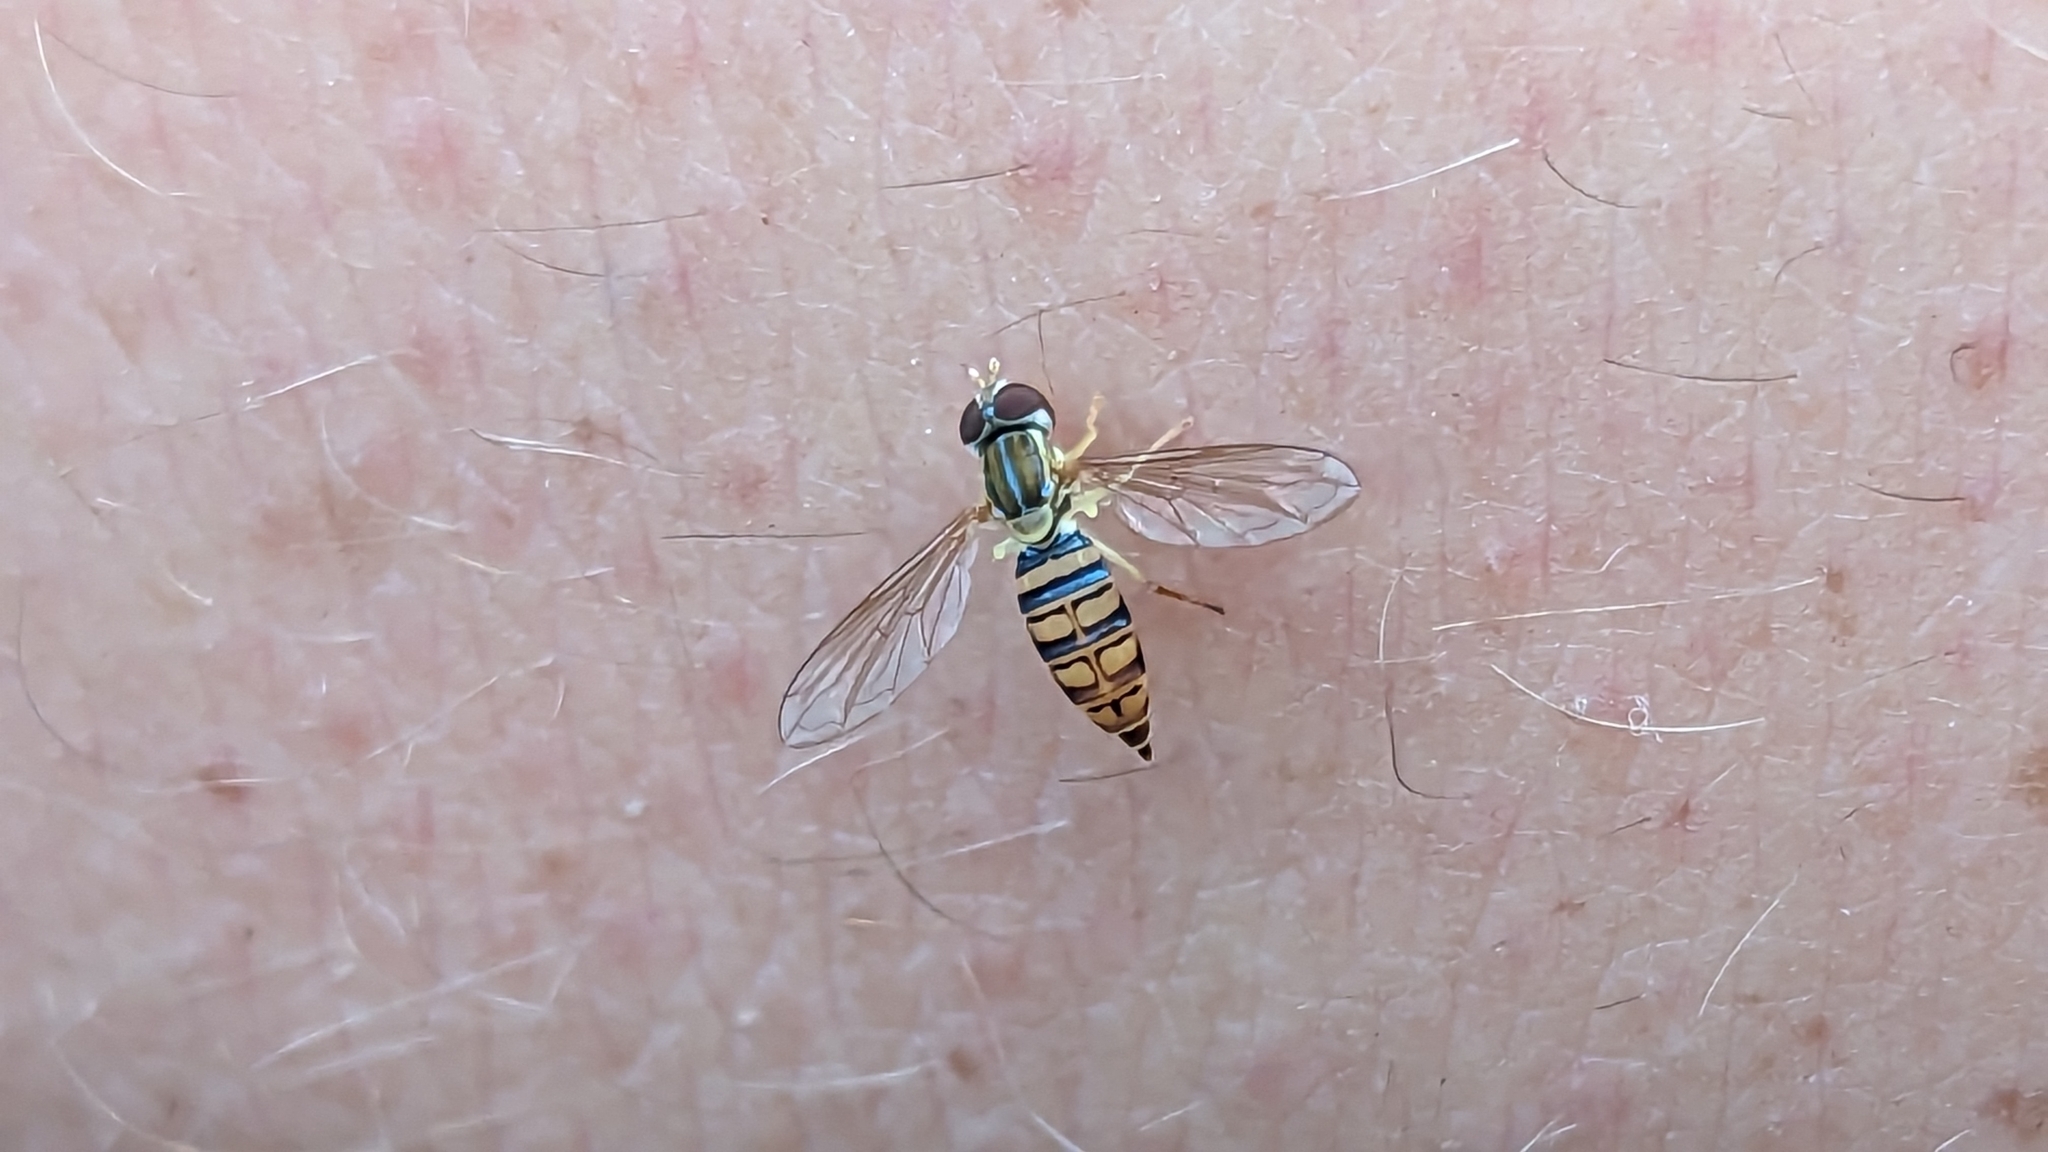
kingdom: Animalia
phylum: Arthropoda
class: Insecta
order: Diptera
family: Syrphidae
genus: Toxomerus
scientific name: Toxomerus politus
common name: Maize calligrapher
